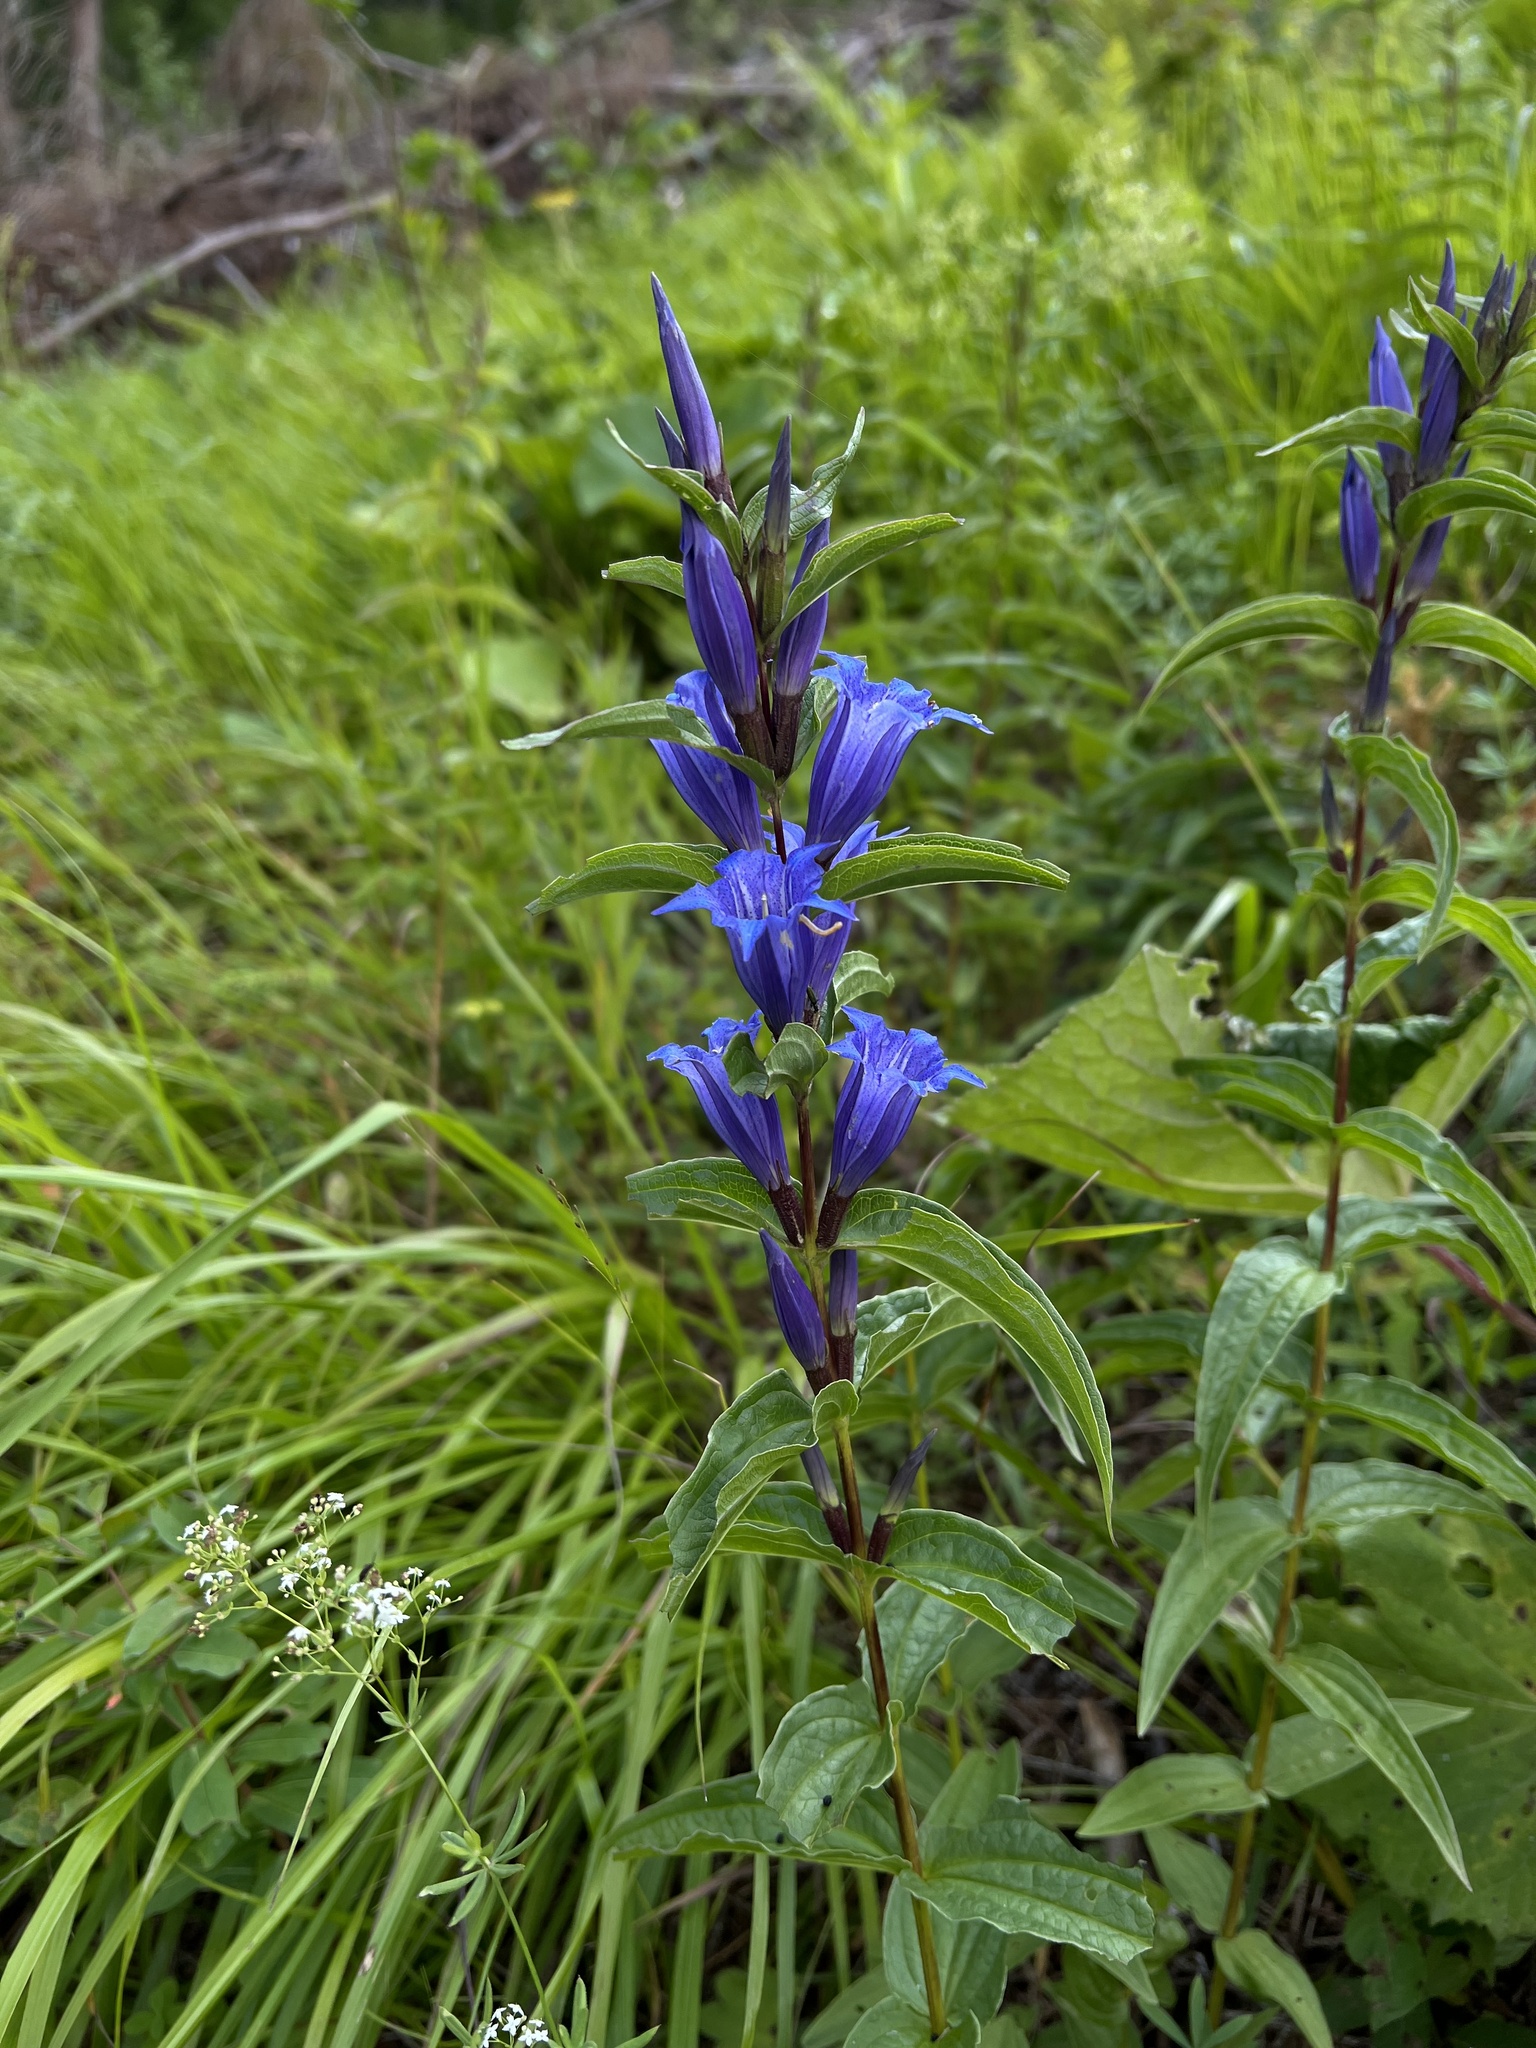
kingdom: Plantae
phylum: Tracheophyta
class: Magnoliopsida
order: Gentianales
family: Gentianaceae
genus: Gentiana
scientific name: Gentiana asclepiadea
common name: Willow gentian
